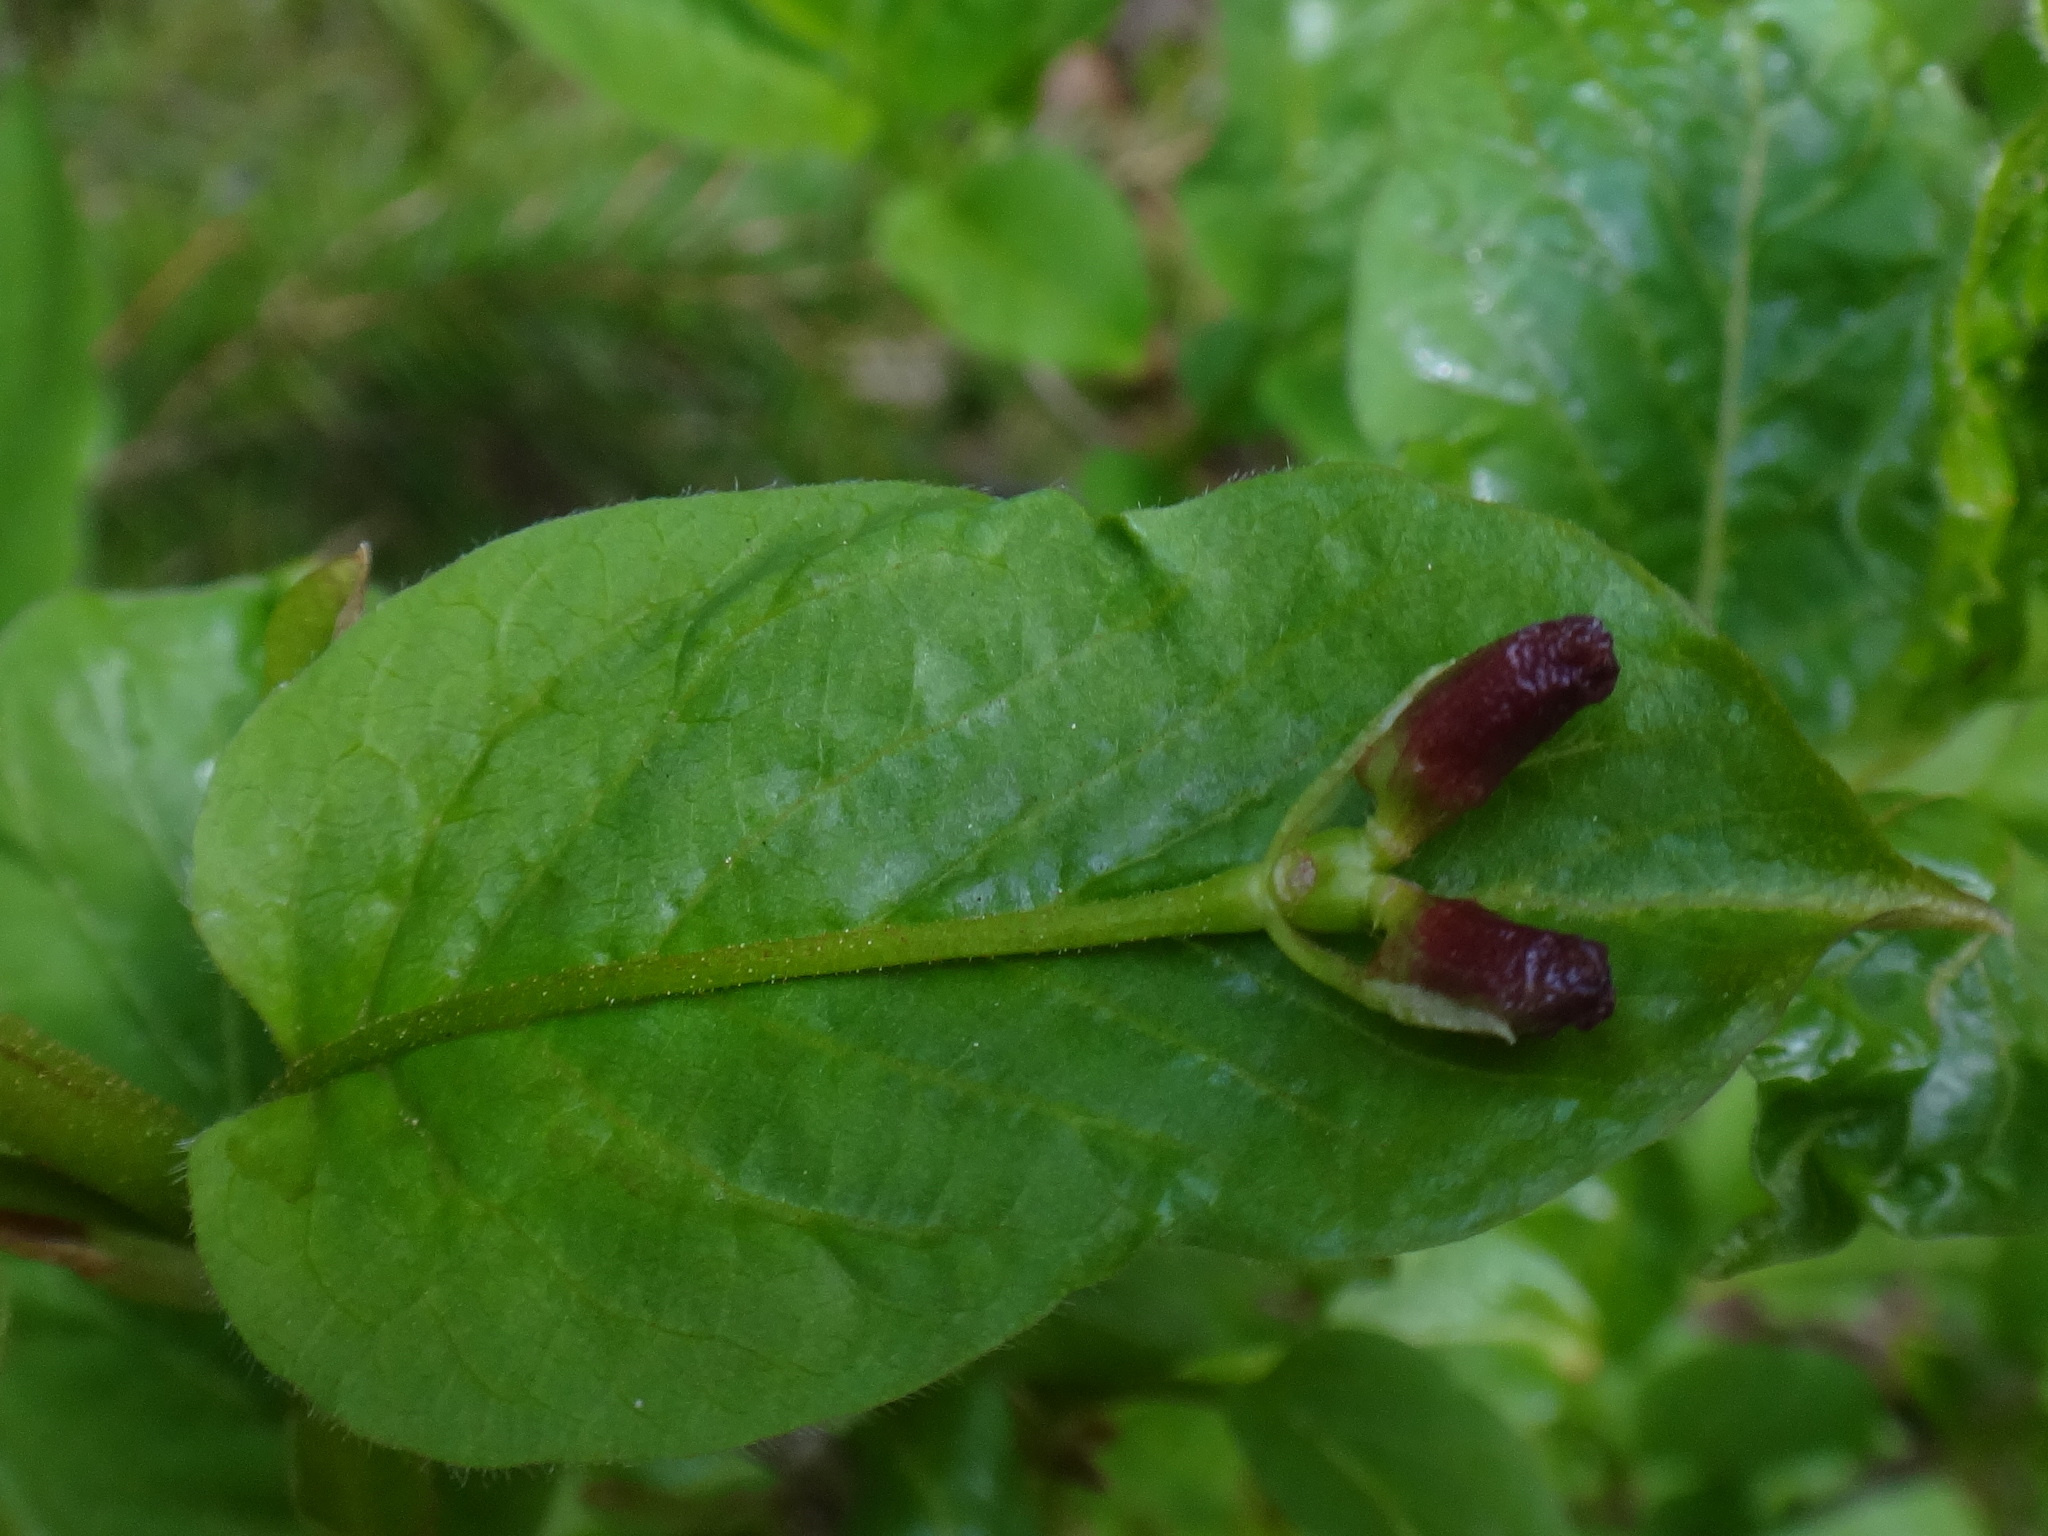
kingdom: Plantae
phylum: Tracheophyta
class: Magnoliopsida
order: Dipsacales
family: Caprifoliaceae
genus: Lonicera
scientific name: Lonicera alpigena
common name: Alpine honeysuckle
